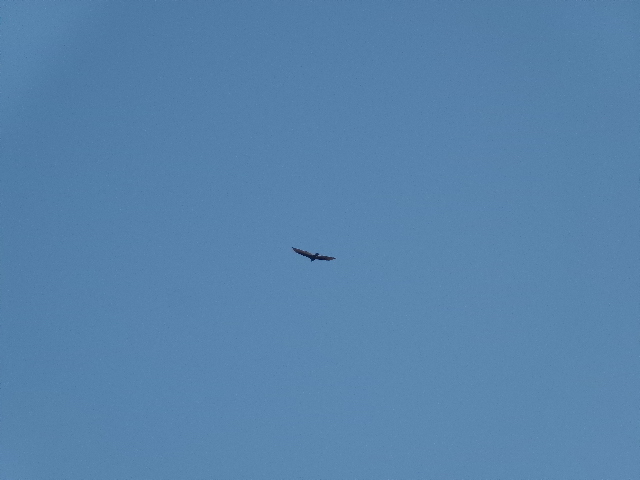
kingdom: Animalia
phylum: Chordata
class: Aves
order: Accipitriformes
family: Cathartidae
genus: Cathartes
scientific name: Cathartes aura
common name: Turkey vulture
